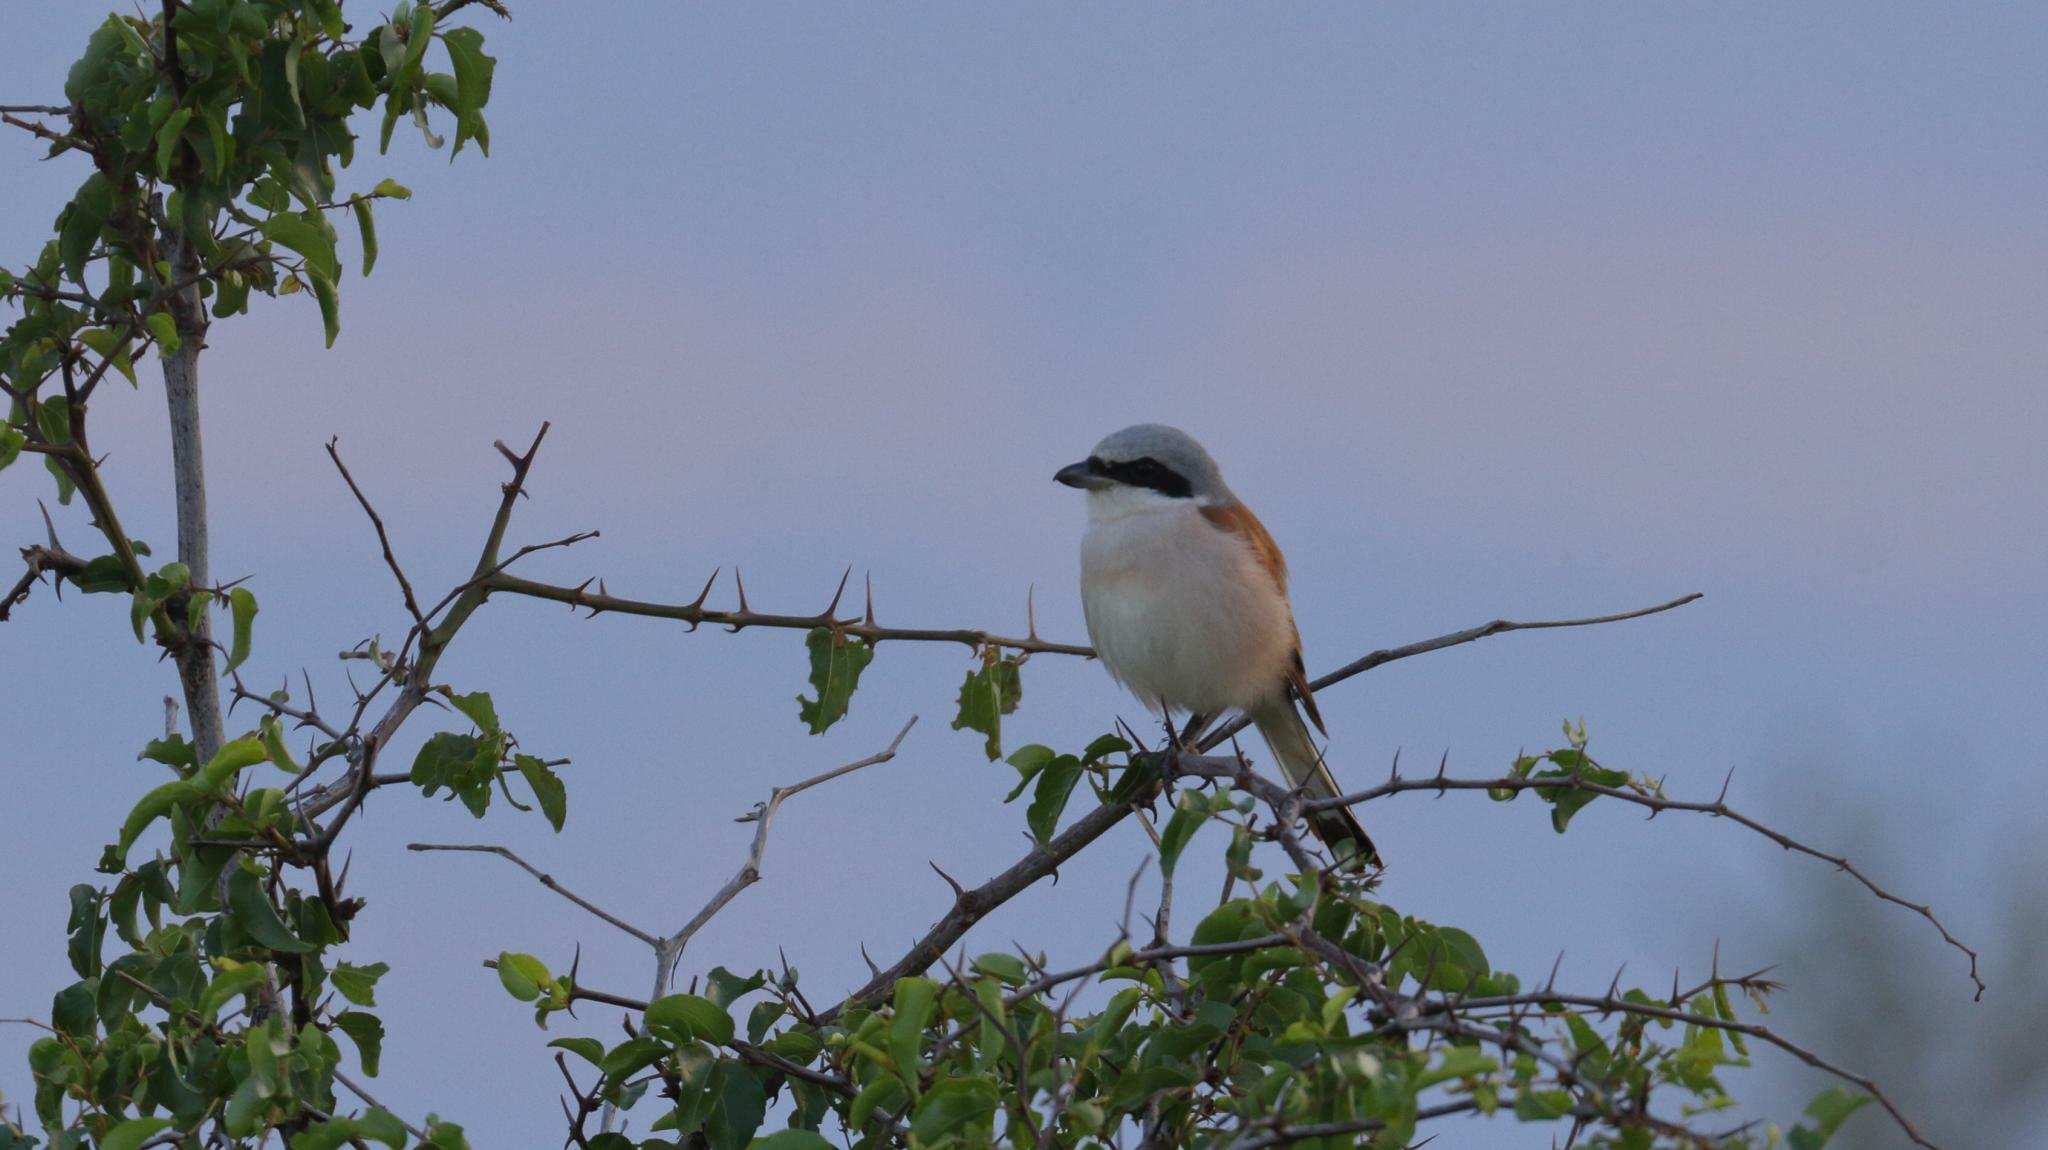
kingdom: Animalia
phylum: Chordata
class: Aves
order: Passeriformes
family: Laniidae
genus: Lanius
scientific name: Lanius collurio
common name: Red-backed shrike
